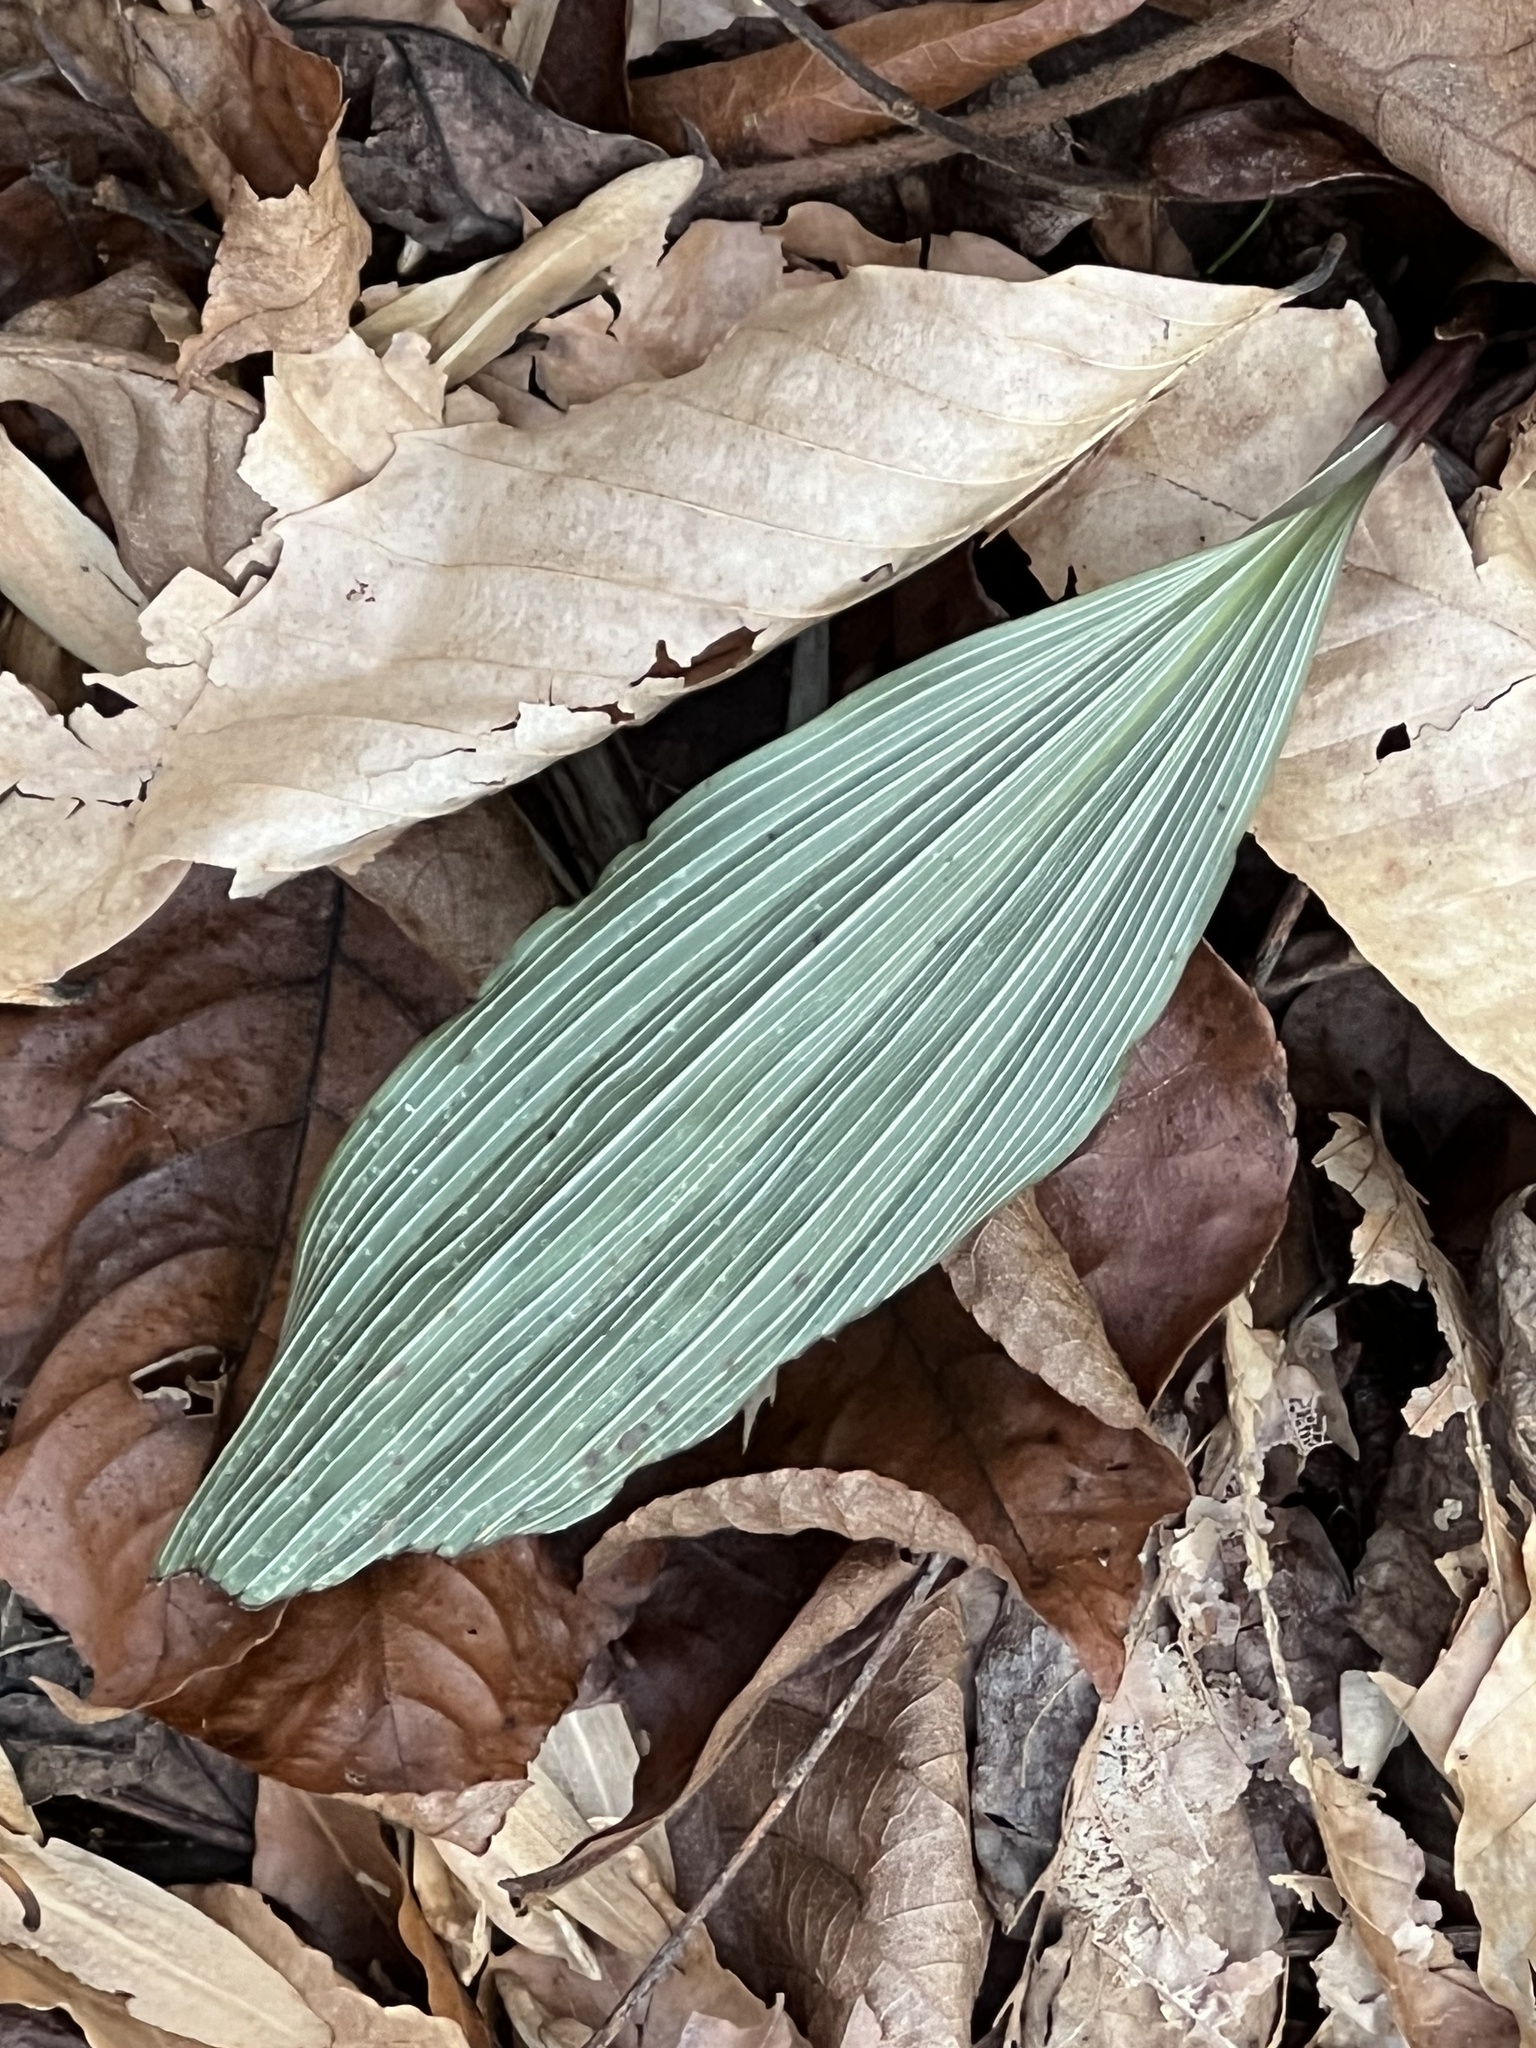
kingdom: Plantae
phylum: Tracheophyta
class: Liliopsida
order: Asparagales
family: Orchidaceae
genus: Aplectrum
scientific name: Aplectrum hyemale
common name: Adam-and-eve
